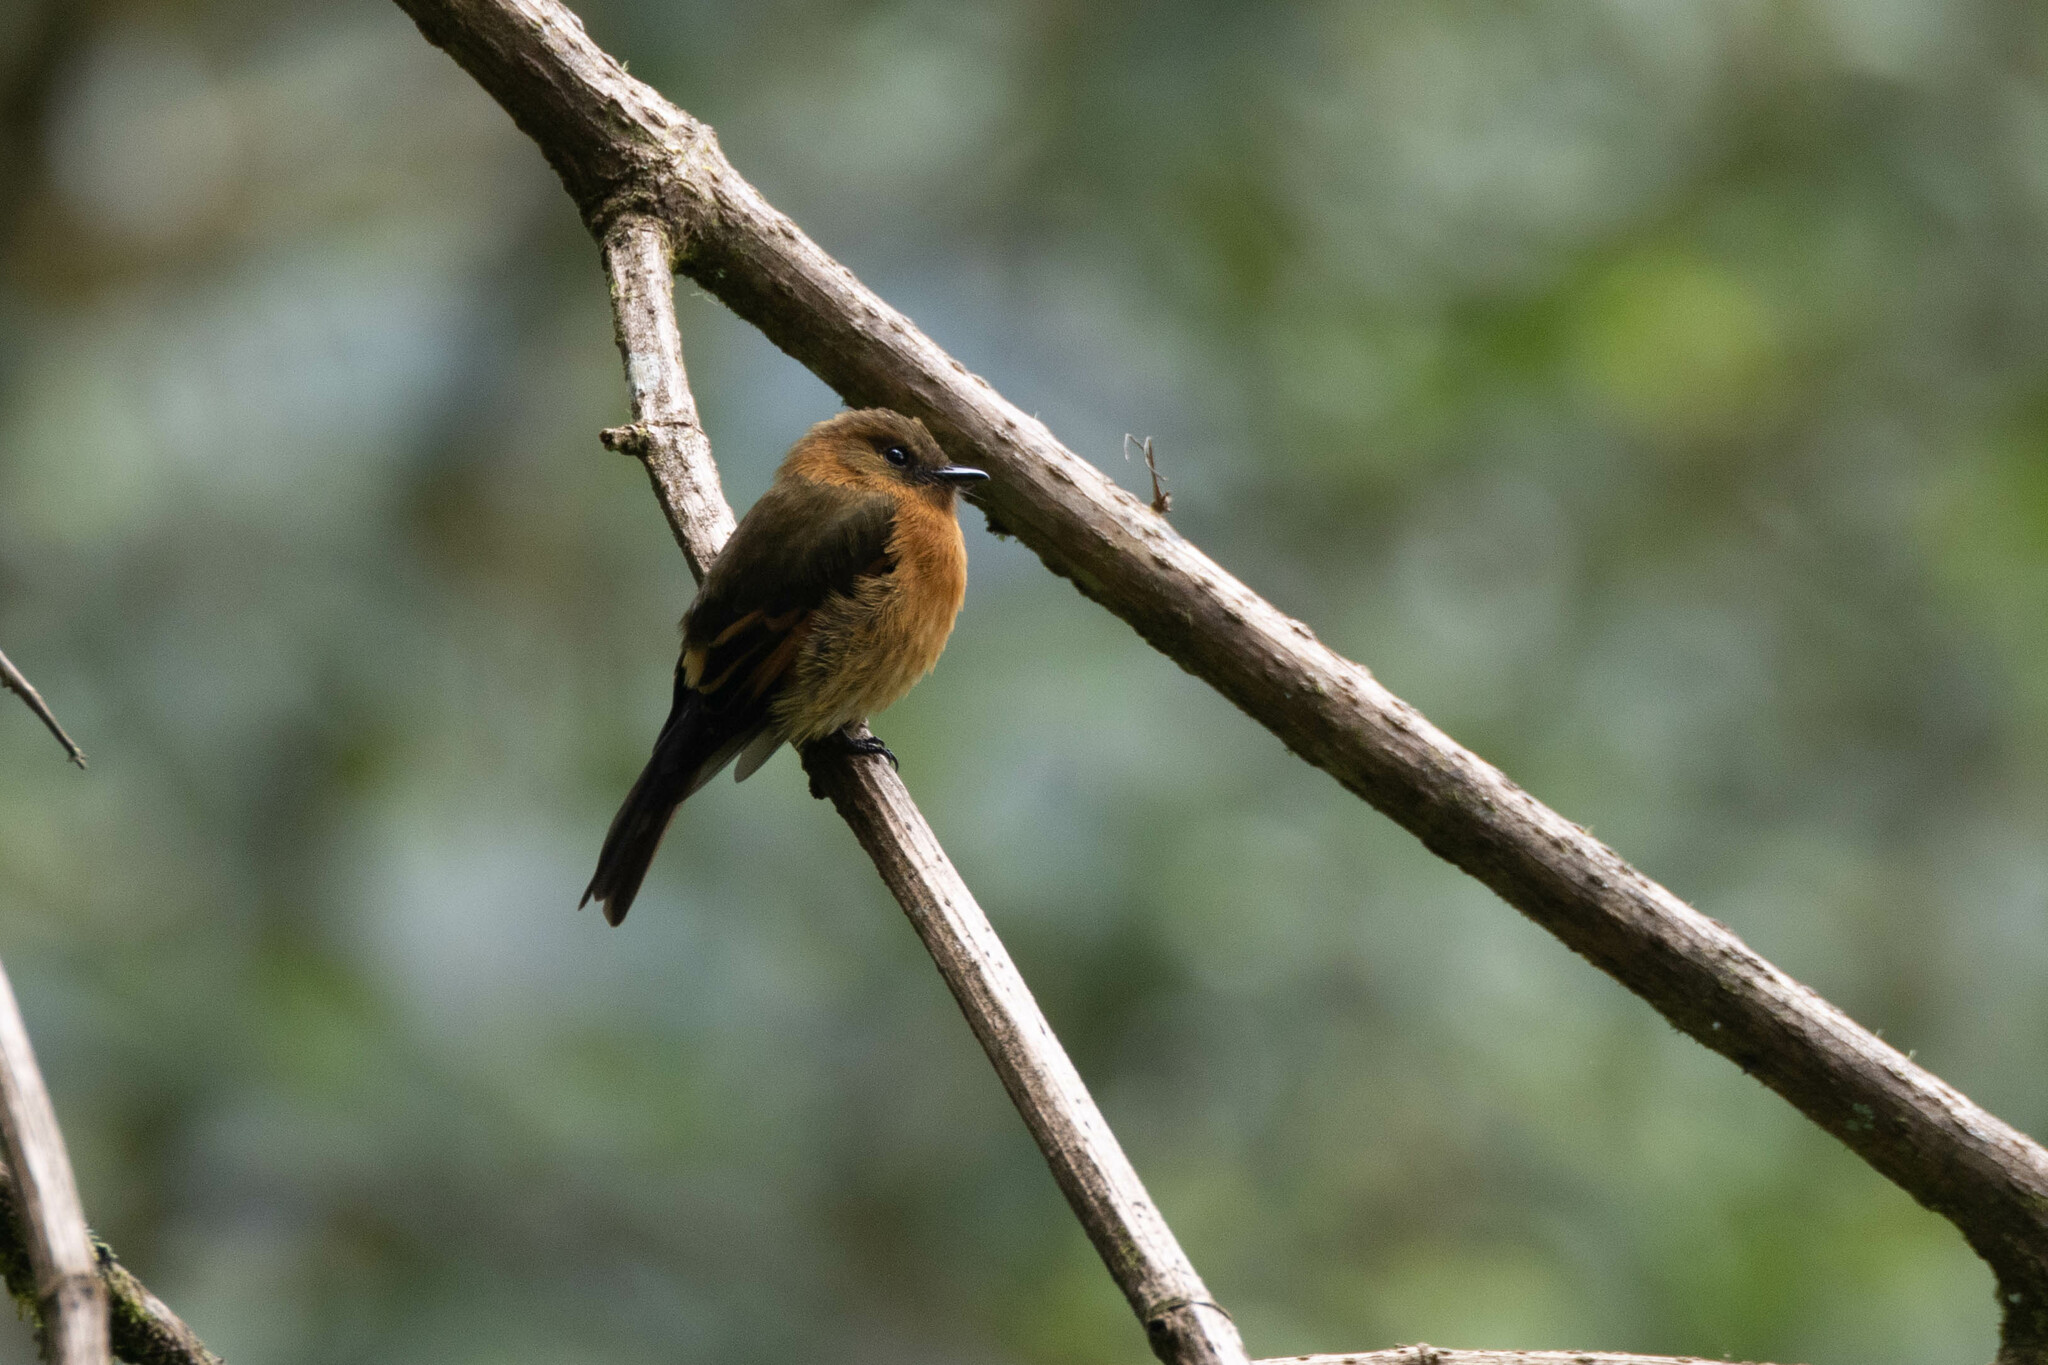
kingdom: Animalia
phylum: Chordata
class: Aves
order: Passeriformes
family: Tyrannidae
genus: Pyrrhomyias
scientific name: Pyrrhomyias cinnamomeus
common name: Cinnamon flycatcher
